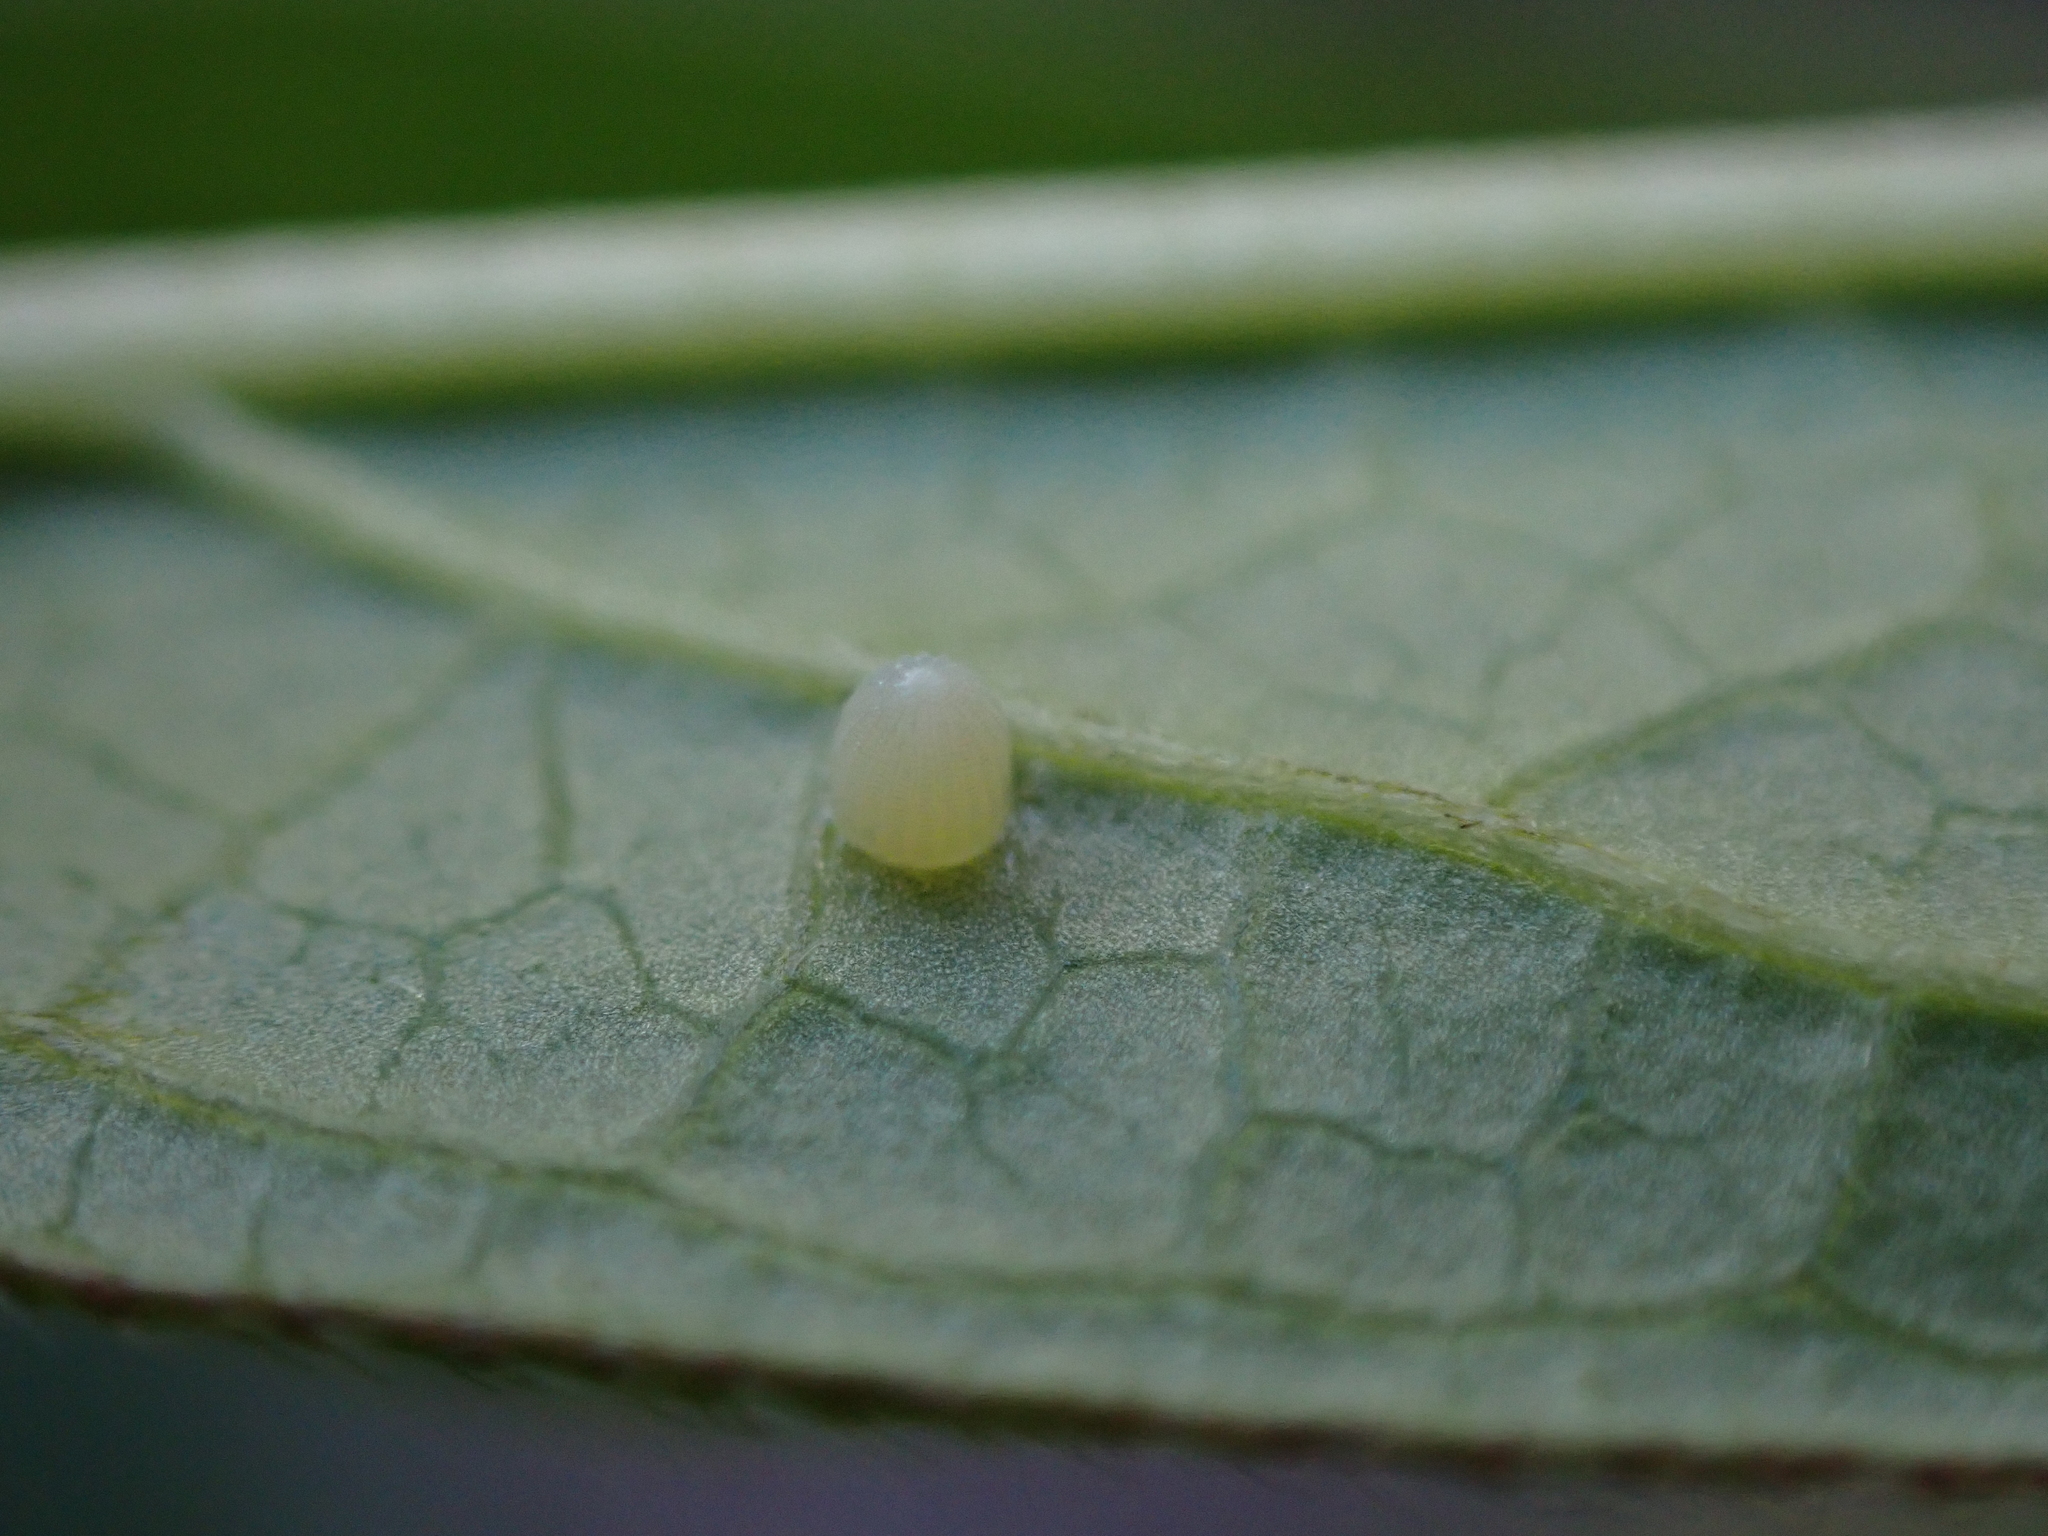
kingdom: Animalia
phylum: Arthropoda
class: Insecta
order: Lepidoptera
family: Nymphalidae
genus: Danaus
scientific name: Danaus plexippus
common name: Monarch
